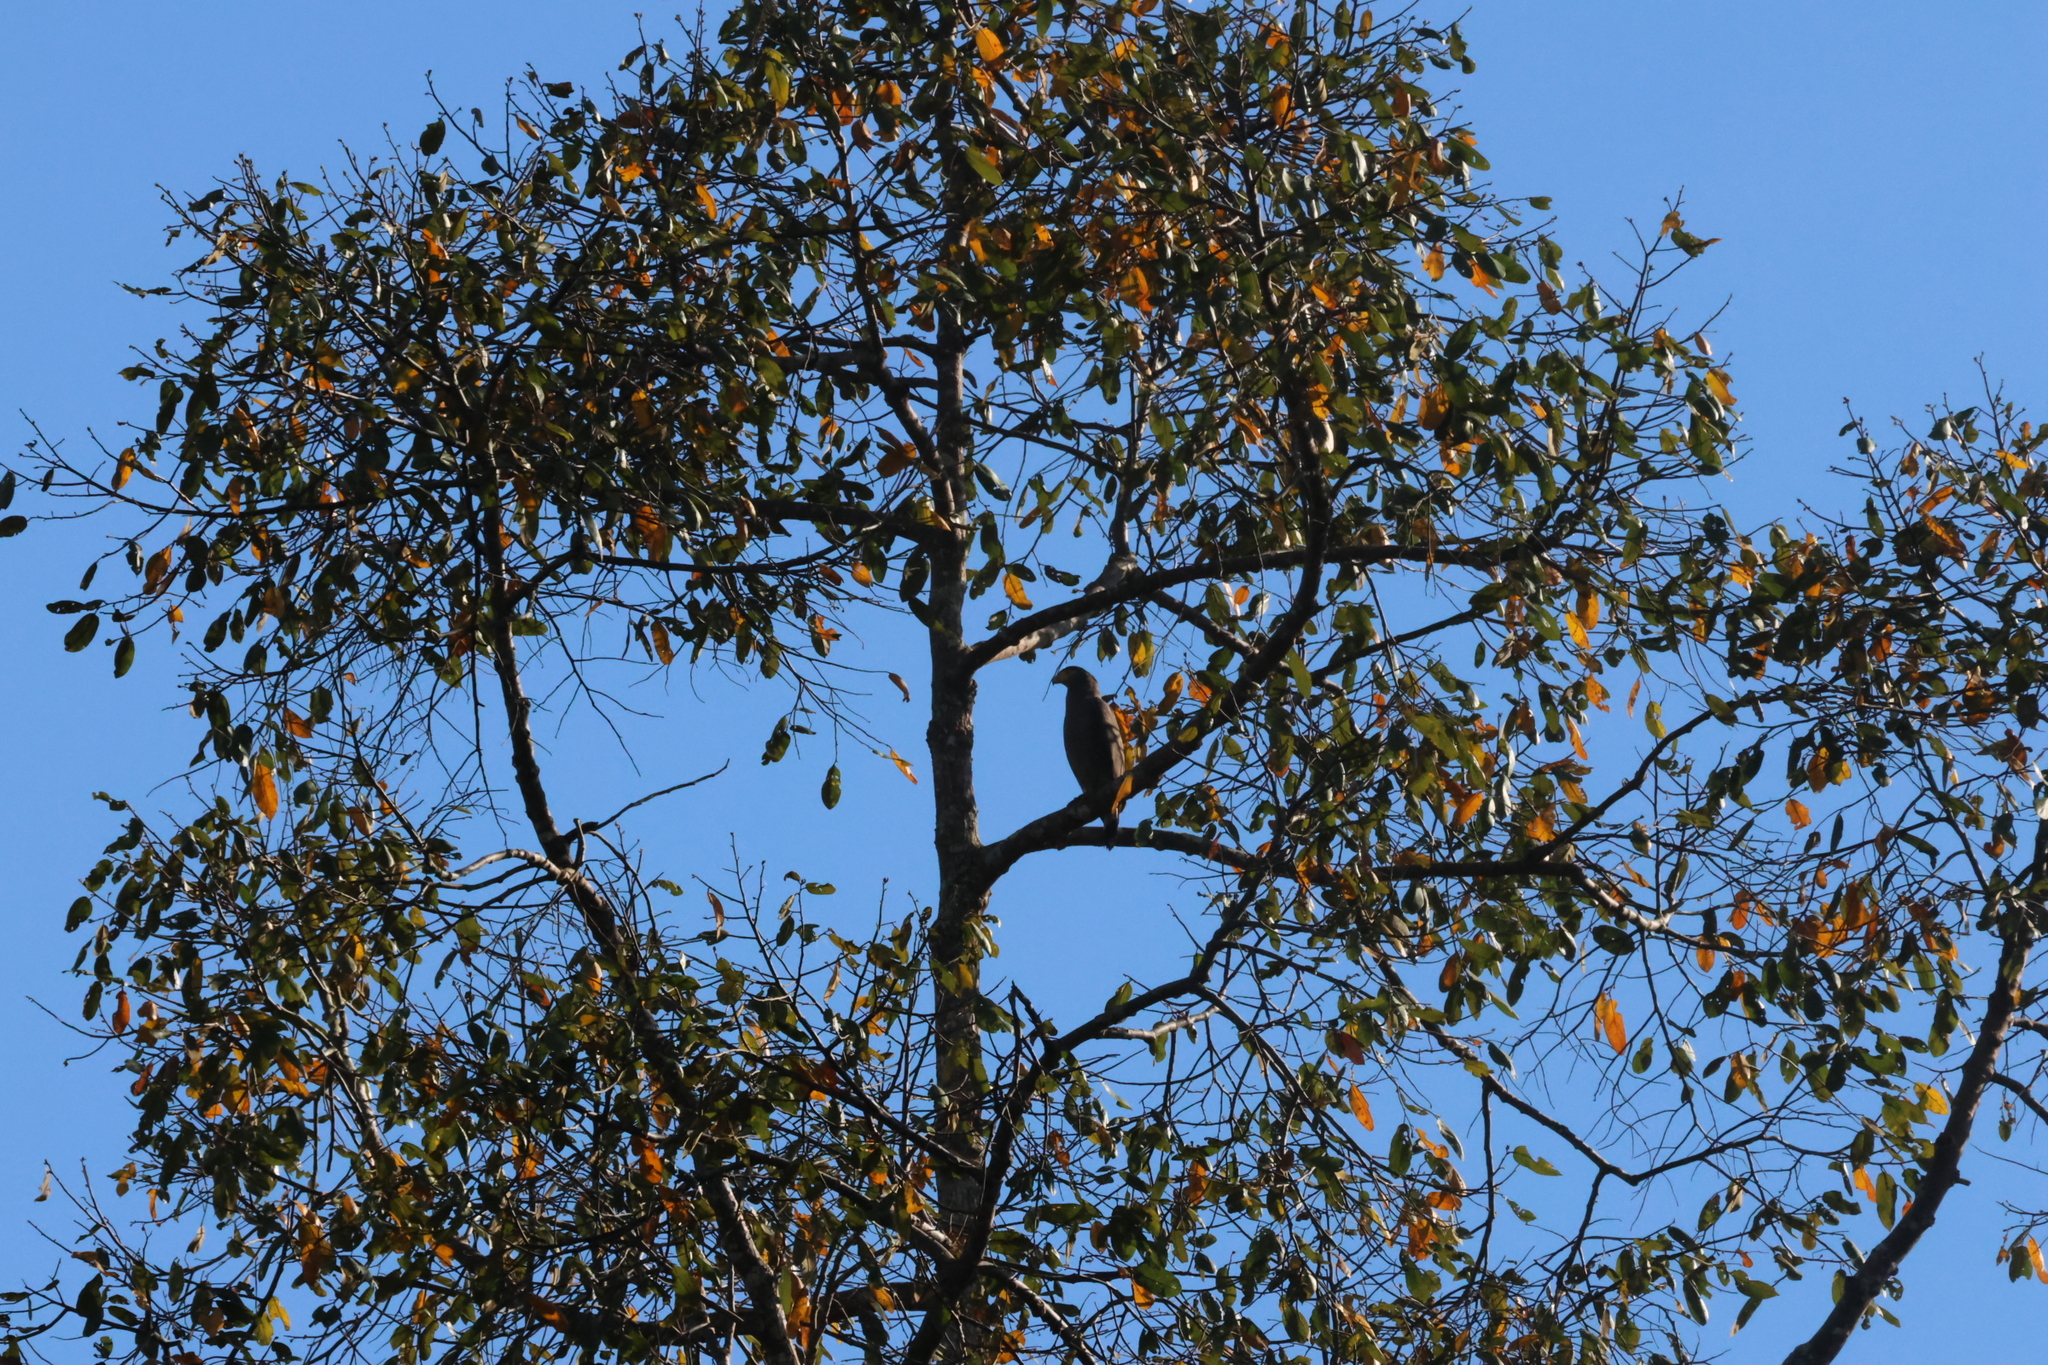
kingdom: Animalia
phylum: Chordata
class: Aves
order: Accipitriformes
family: Accipitridae
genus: Spilornis
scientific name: Spilornis cheela
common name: Crested serpent eagle
